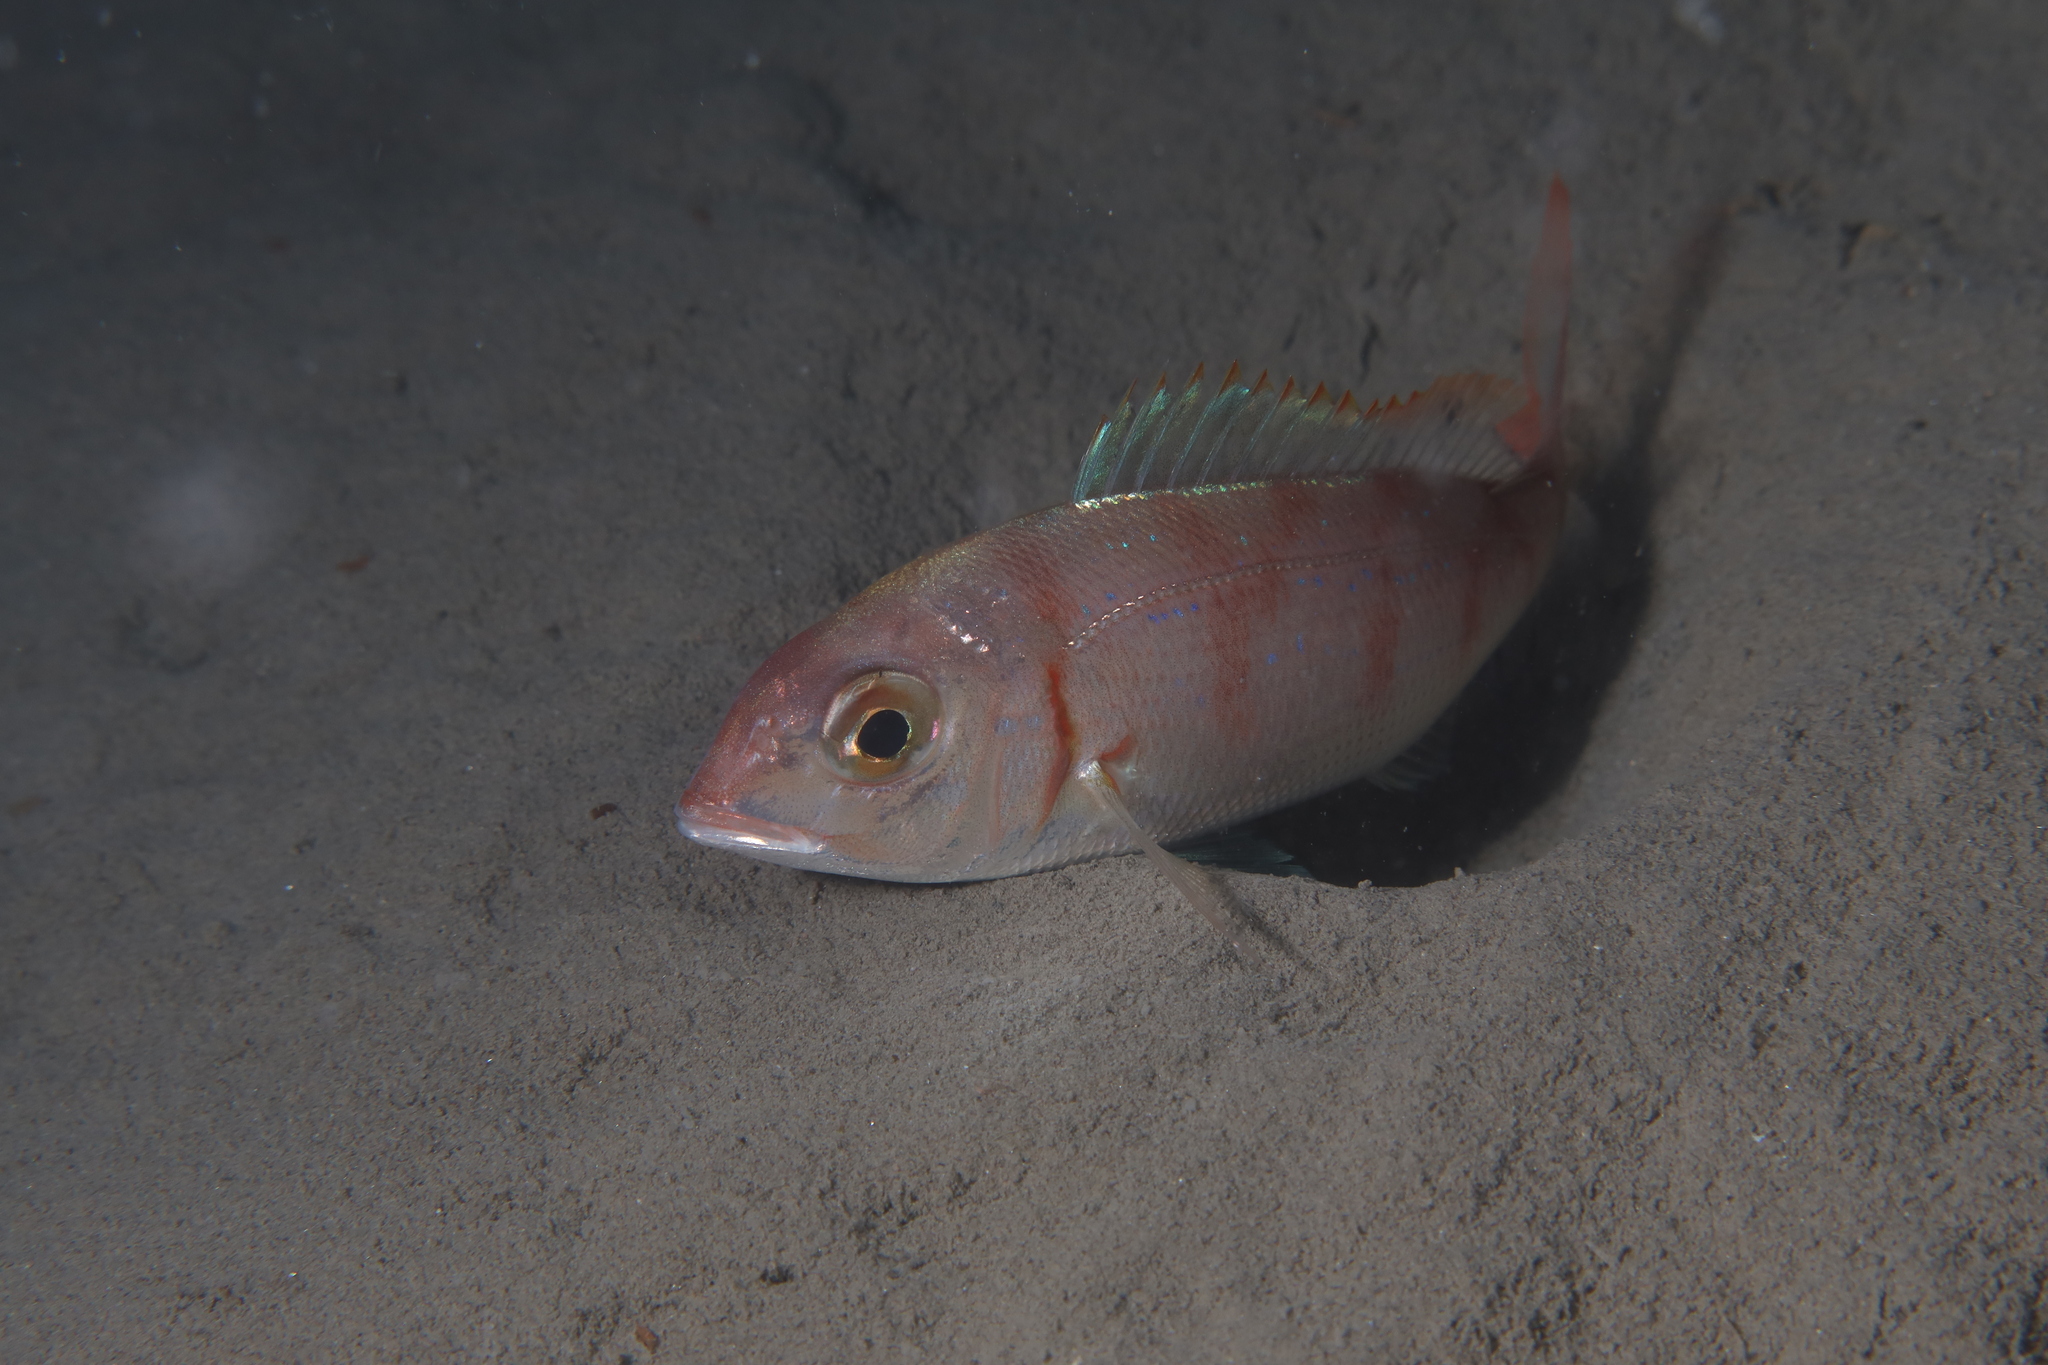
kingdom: Animalia
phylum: Chordata
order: Perciformes
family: Sparidae
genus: Pagellus
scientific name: Pagellus erythrinus
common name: Pandora
